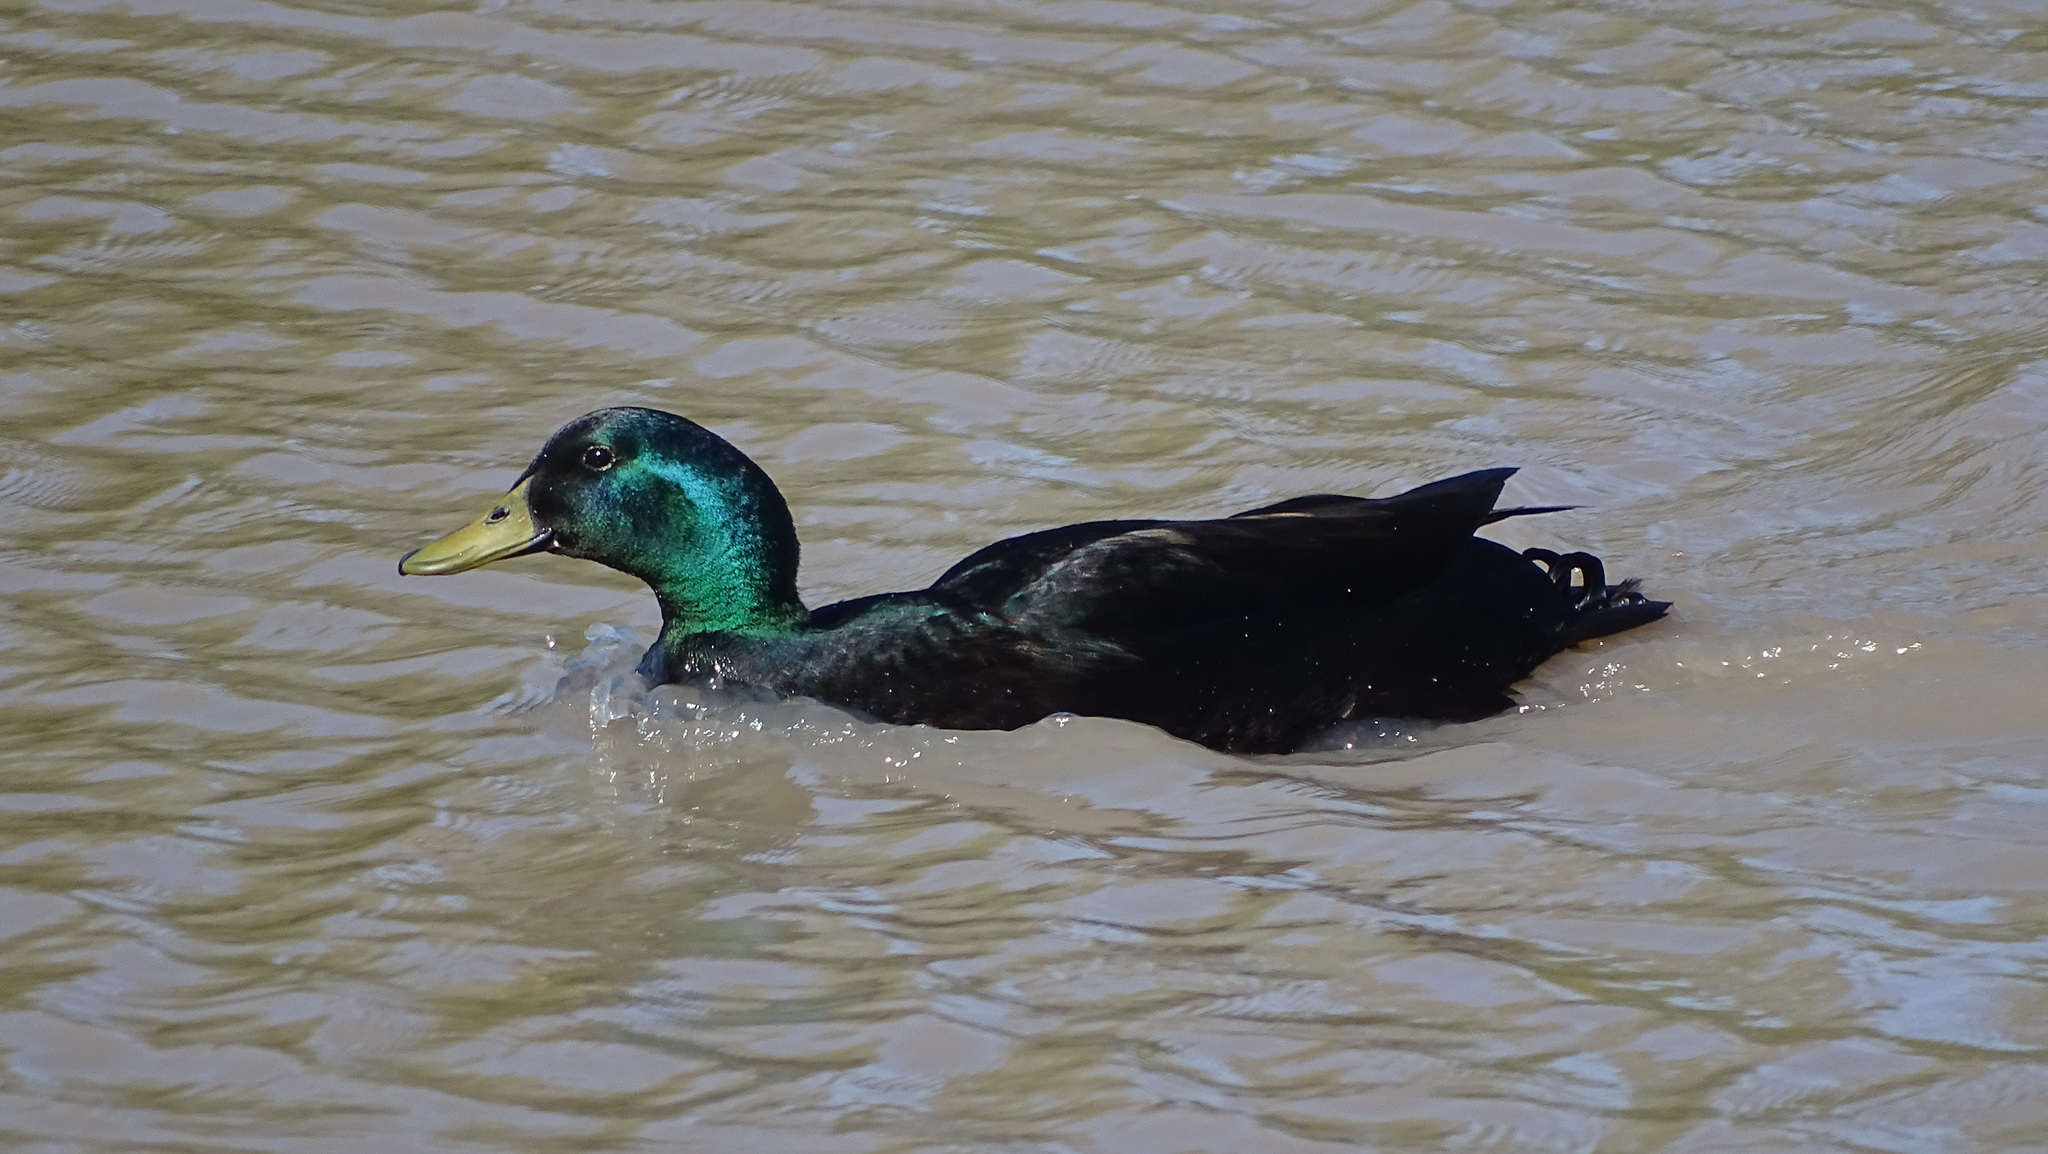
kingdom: Animalia
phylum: Chordata
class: Aves
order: Anseriformes
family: Anatidae
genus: Anas
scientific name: Anas platyrhynchos
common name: Mallard
